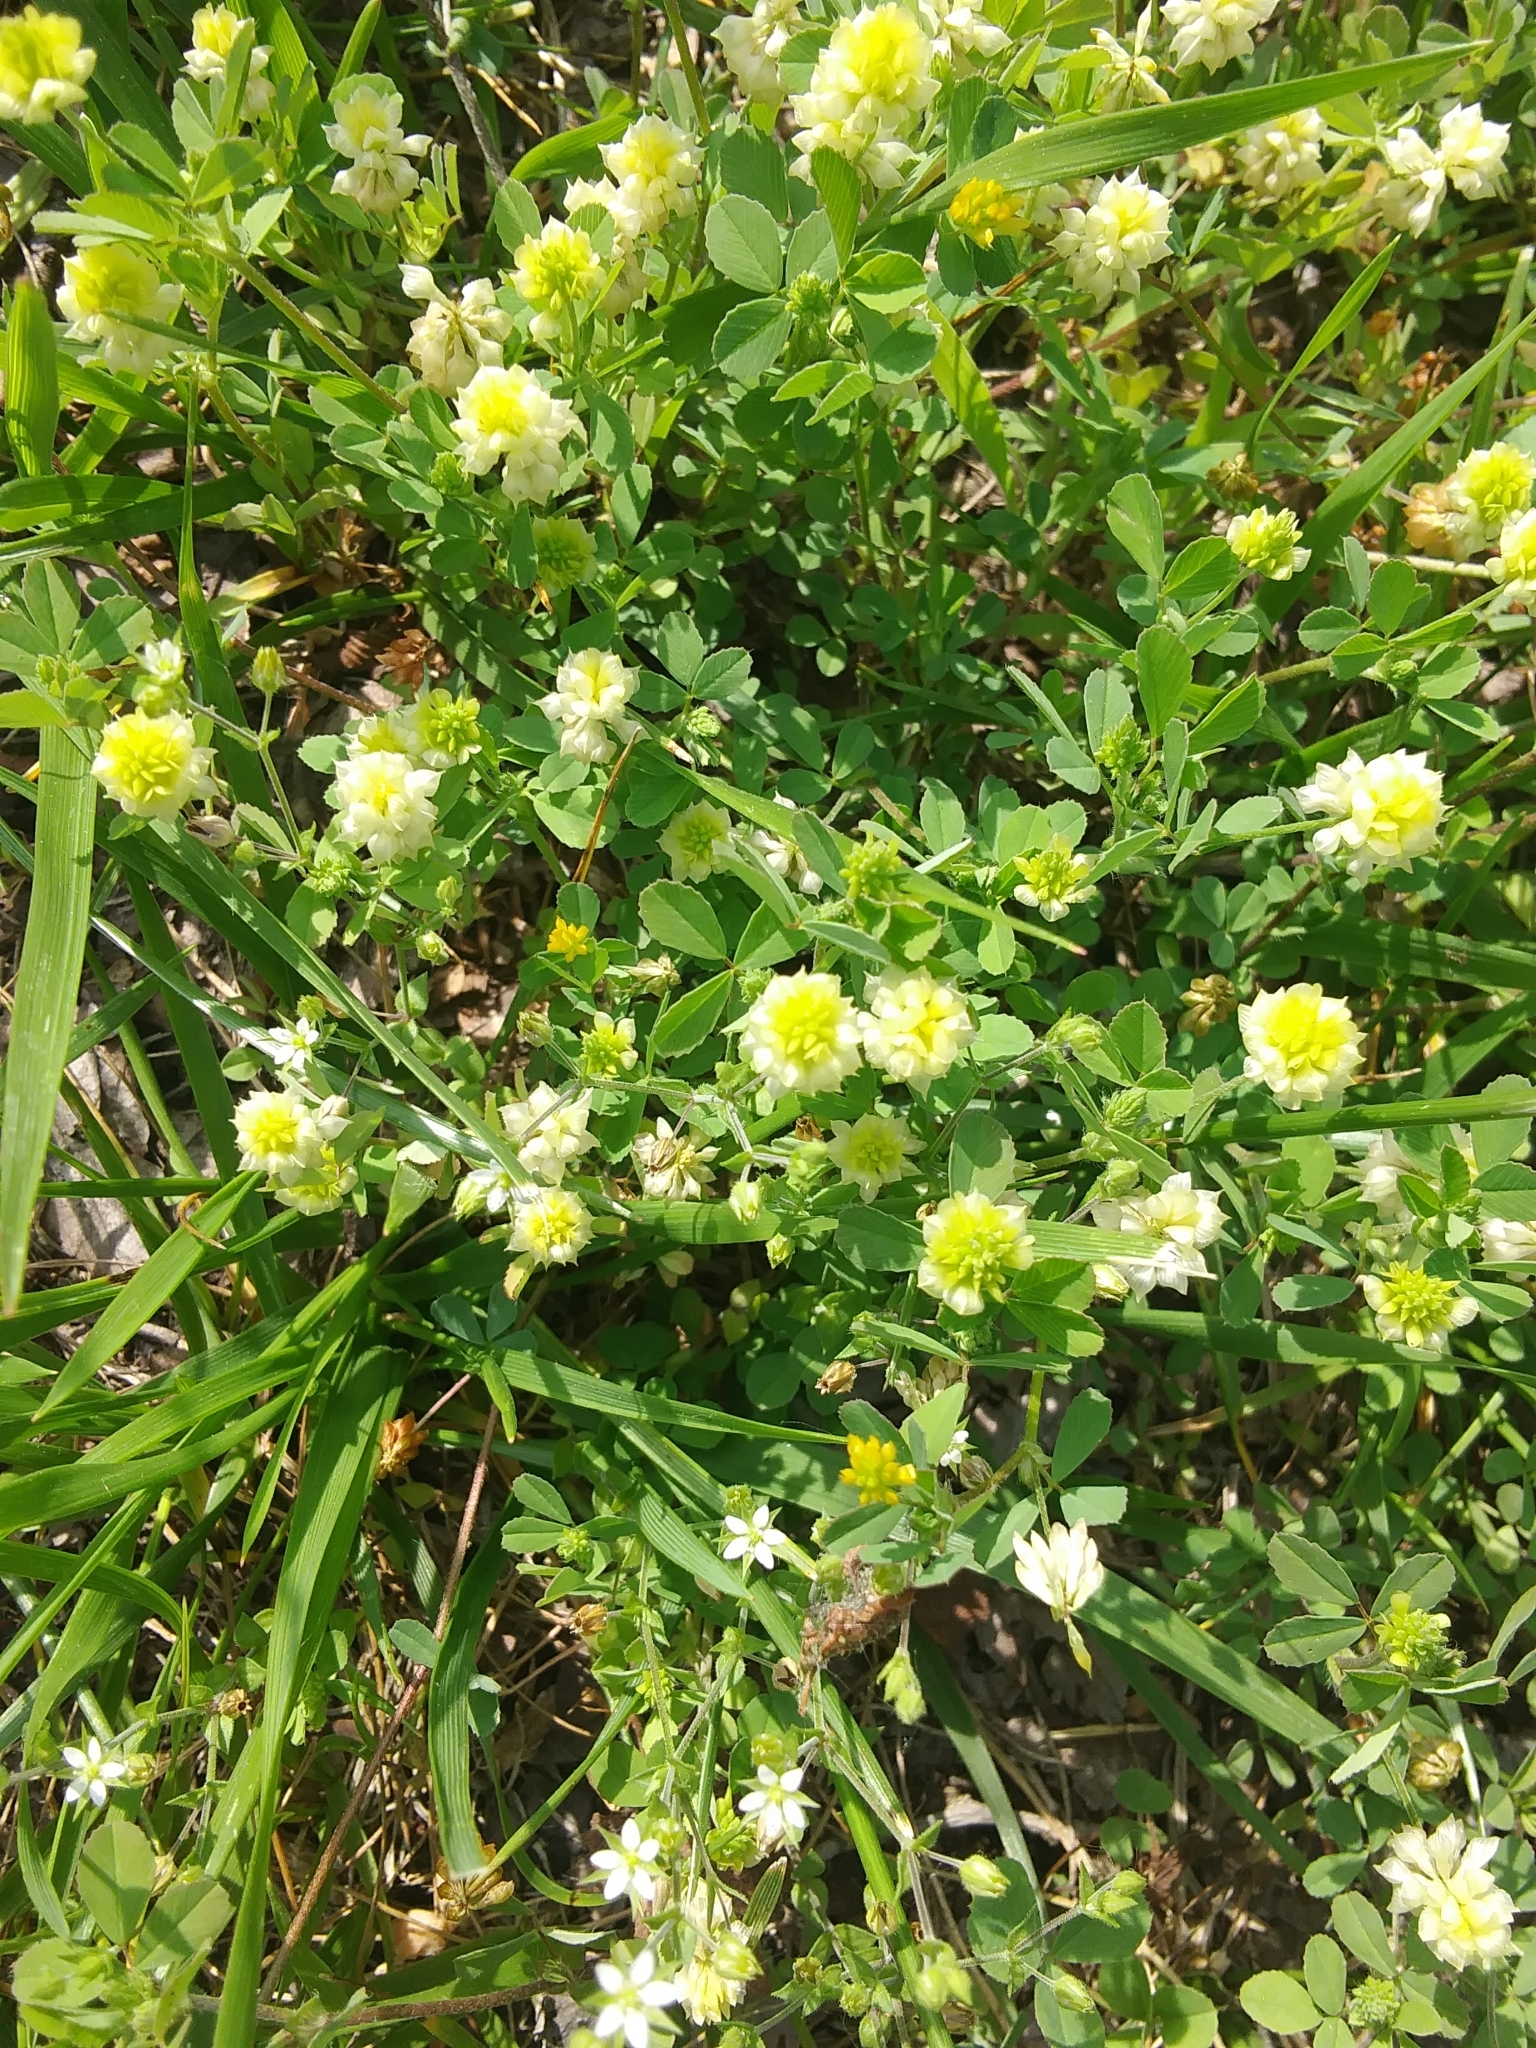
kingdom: Plantae
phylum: Tracheophyta
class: Magnoliopsida
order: Fabales
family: Fabaceae
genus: Trifolium
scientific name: Trifolium campestre
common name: Field clover
